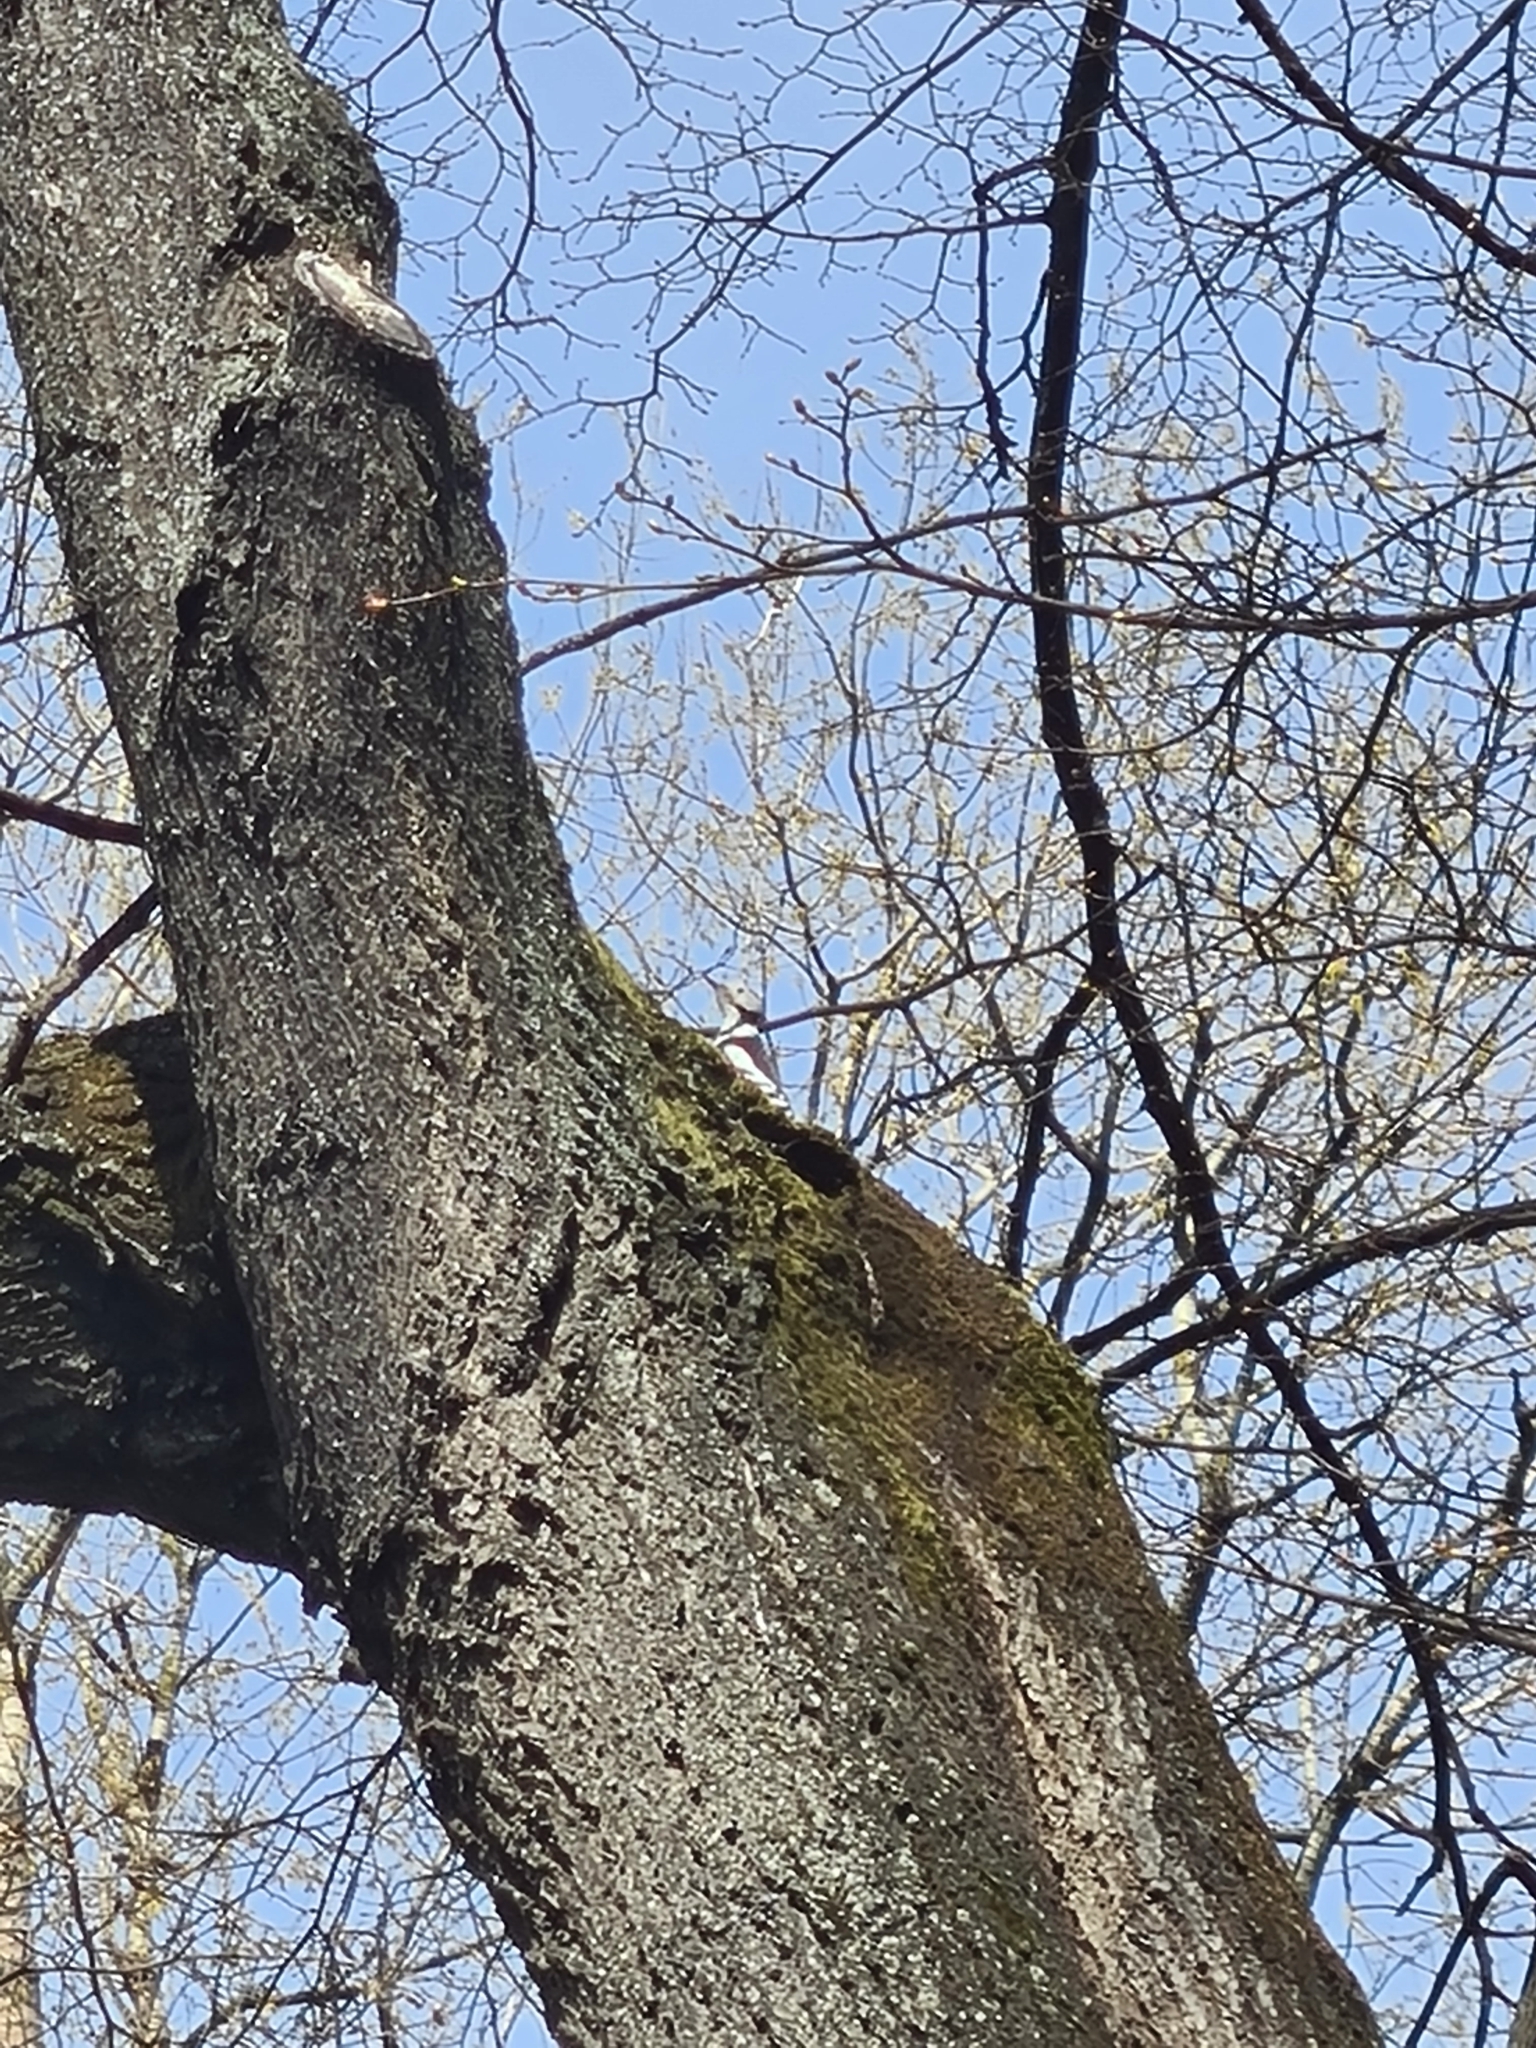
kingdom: Animalia
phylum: Chordata
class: Aves
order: Piciformes
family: Picidae
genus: Dendrocoptes
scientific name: Dendrocoptes medius
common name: Middle spotted woodpecker
